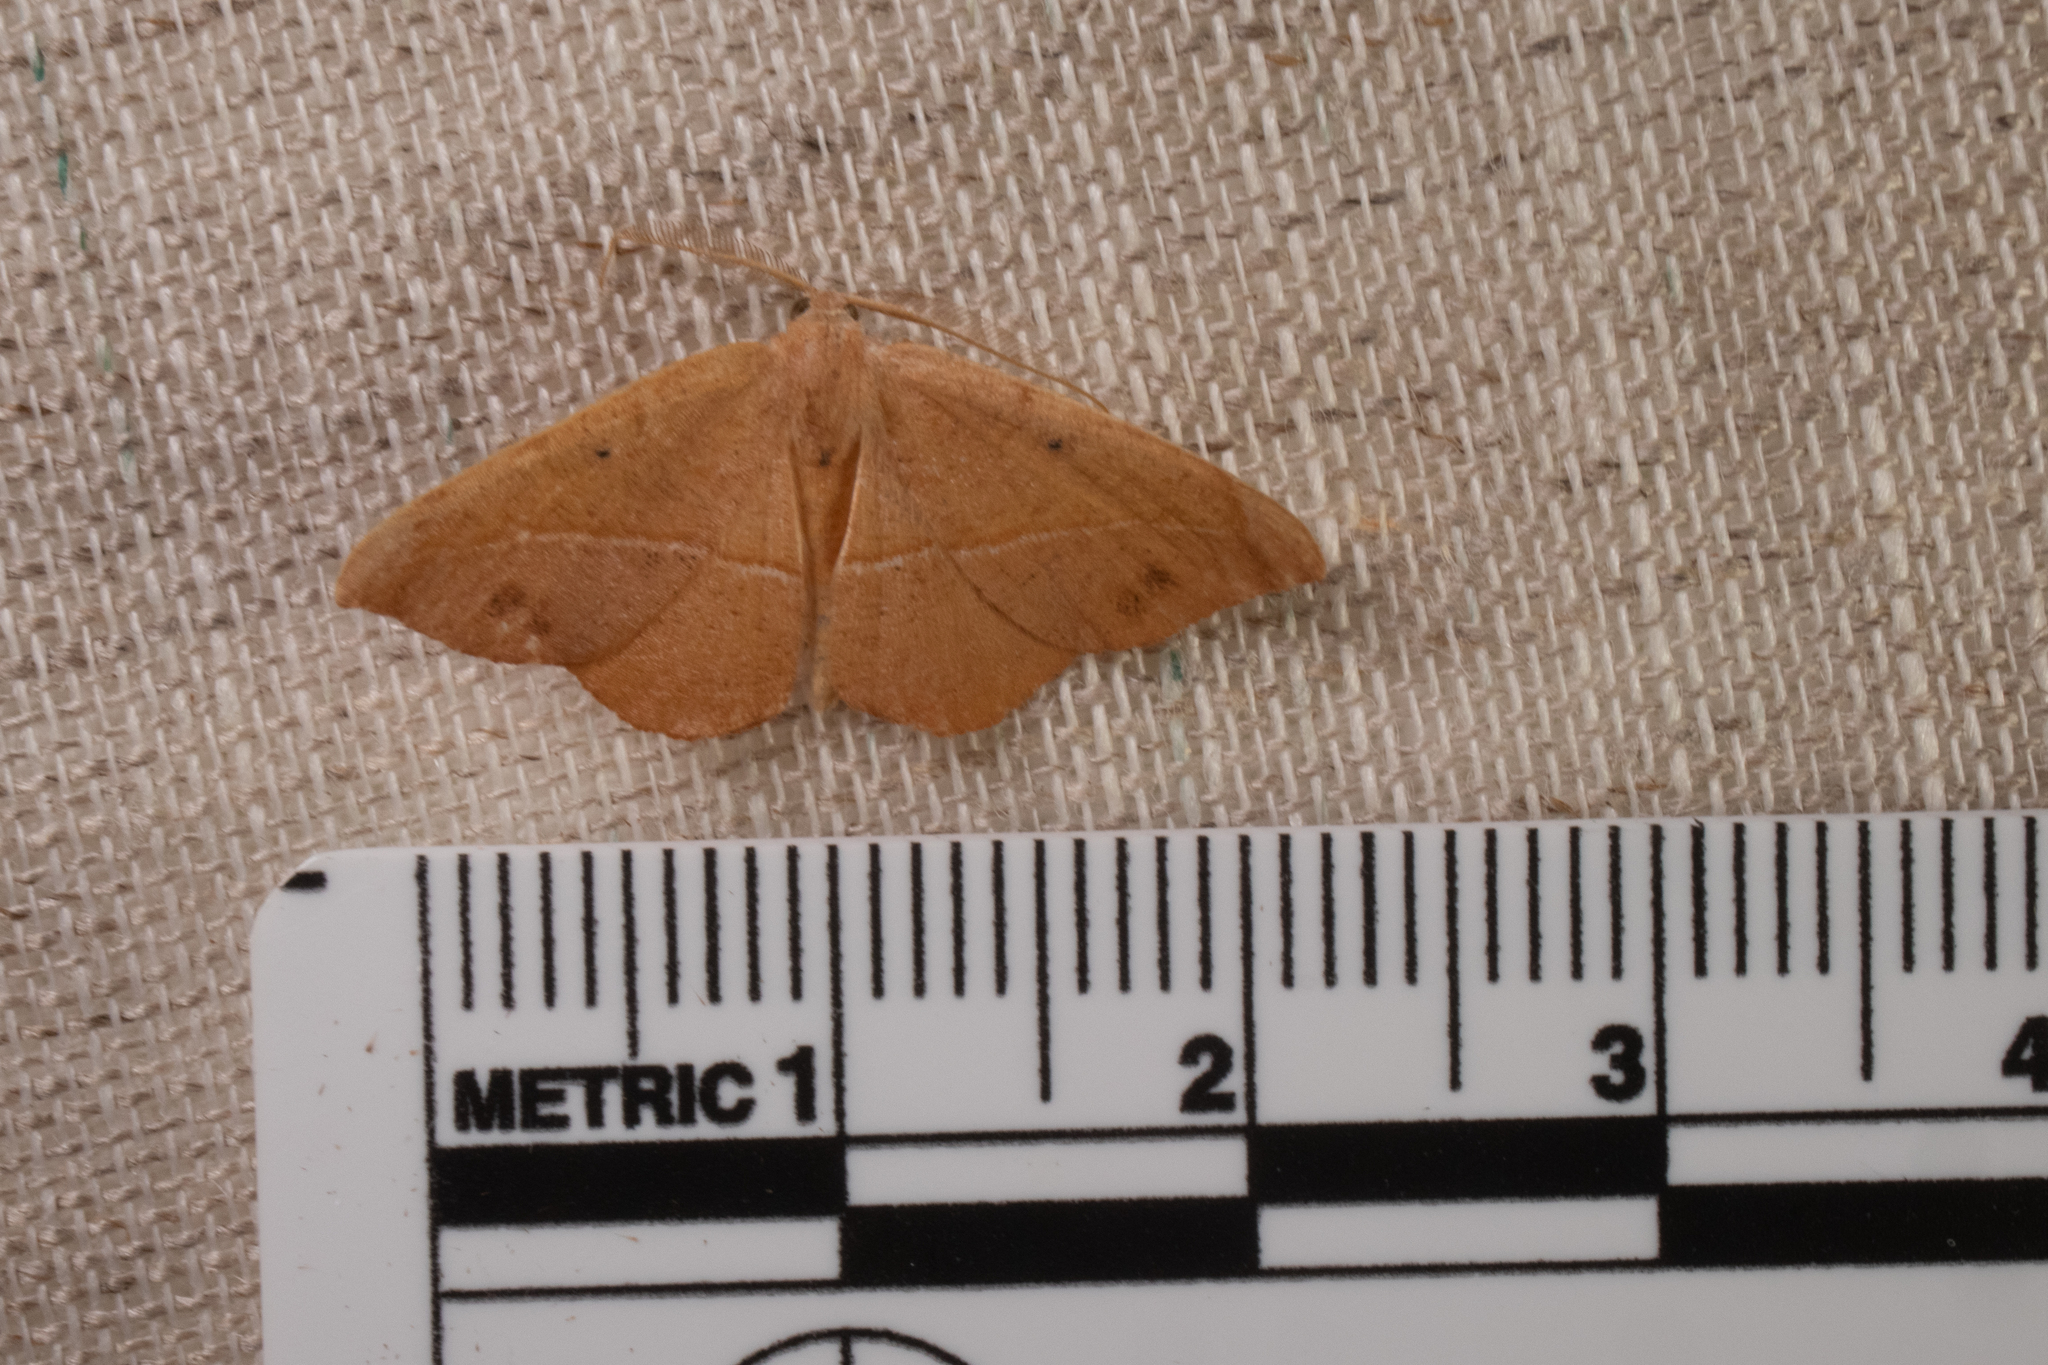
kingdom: Animalia
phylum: Arthropoda
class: Insecta
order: Lepidoptera
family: Geometridae
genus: Patalene
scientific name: Patalene olyzonaria
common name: Juniper geometer moth
